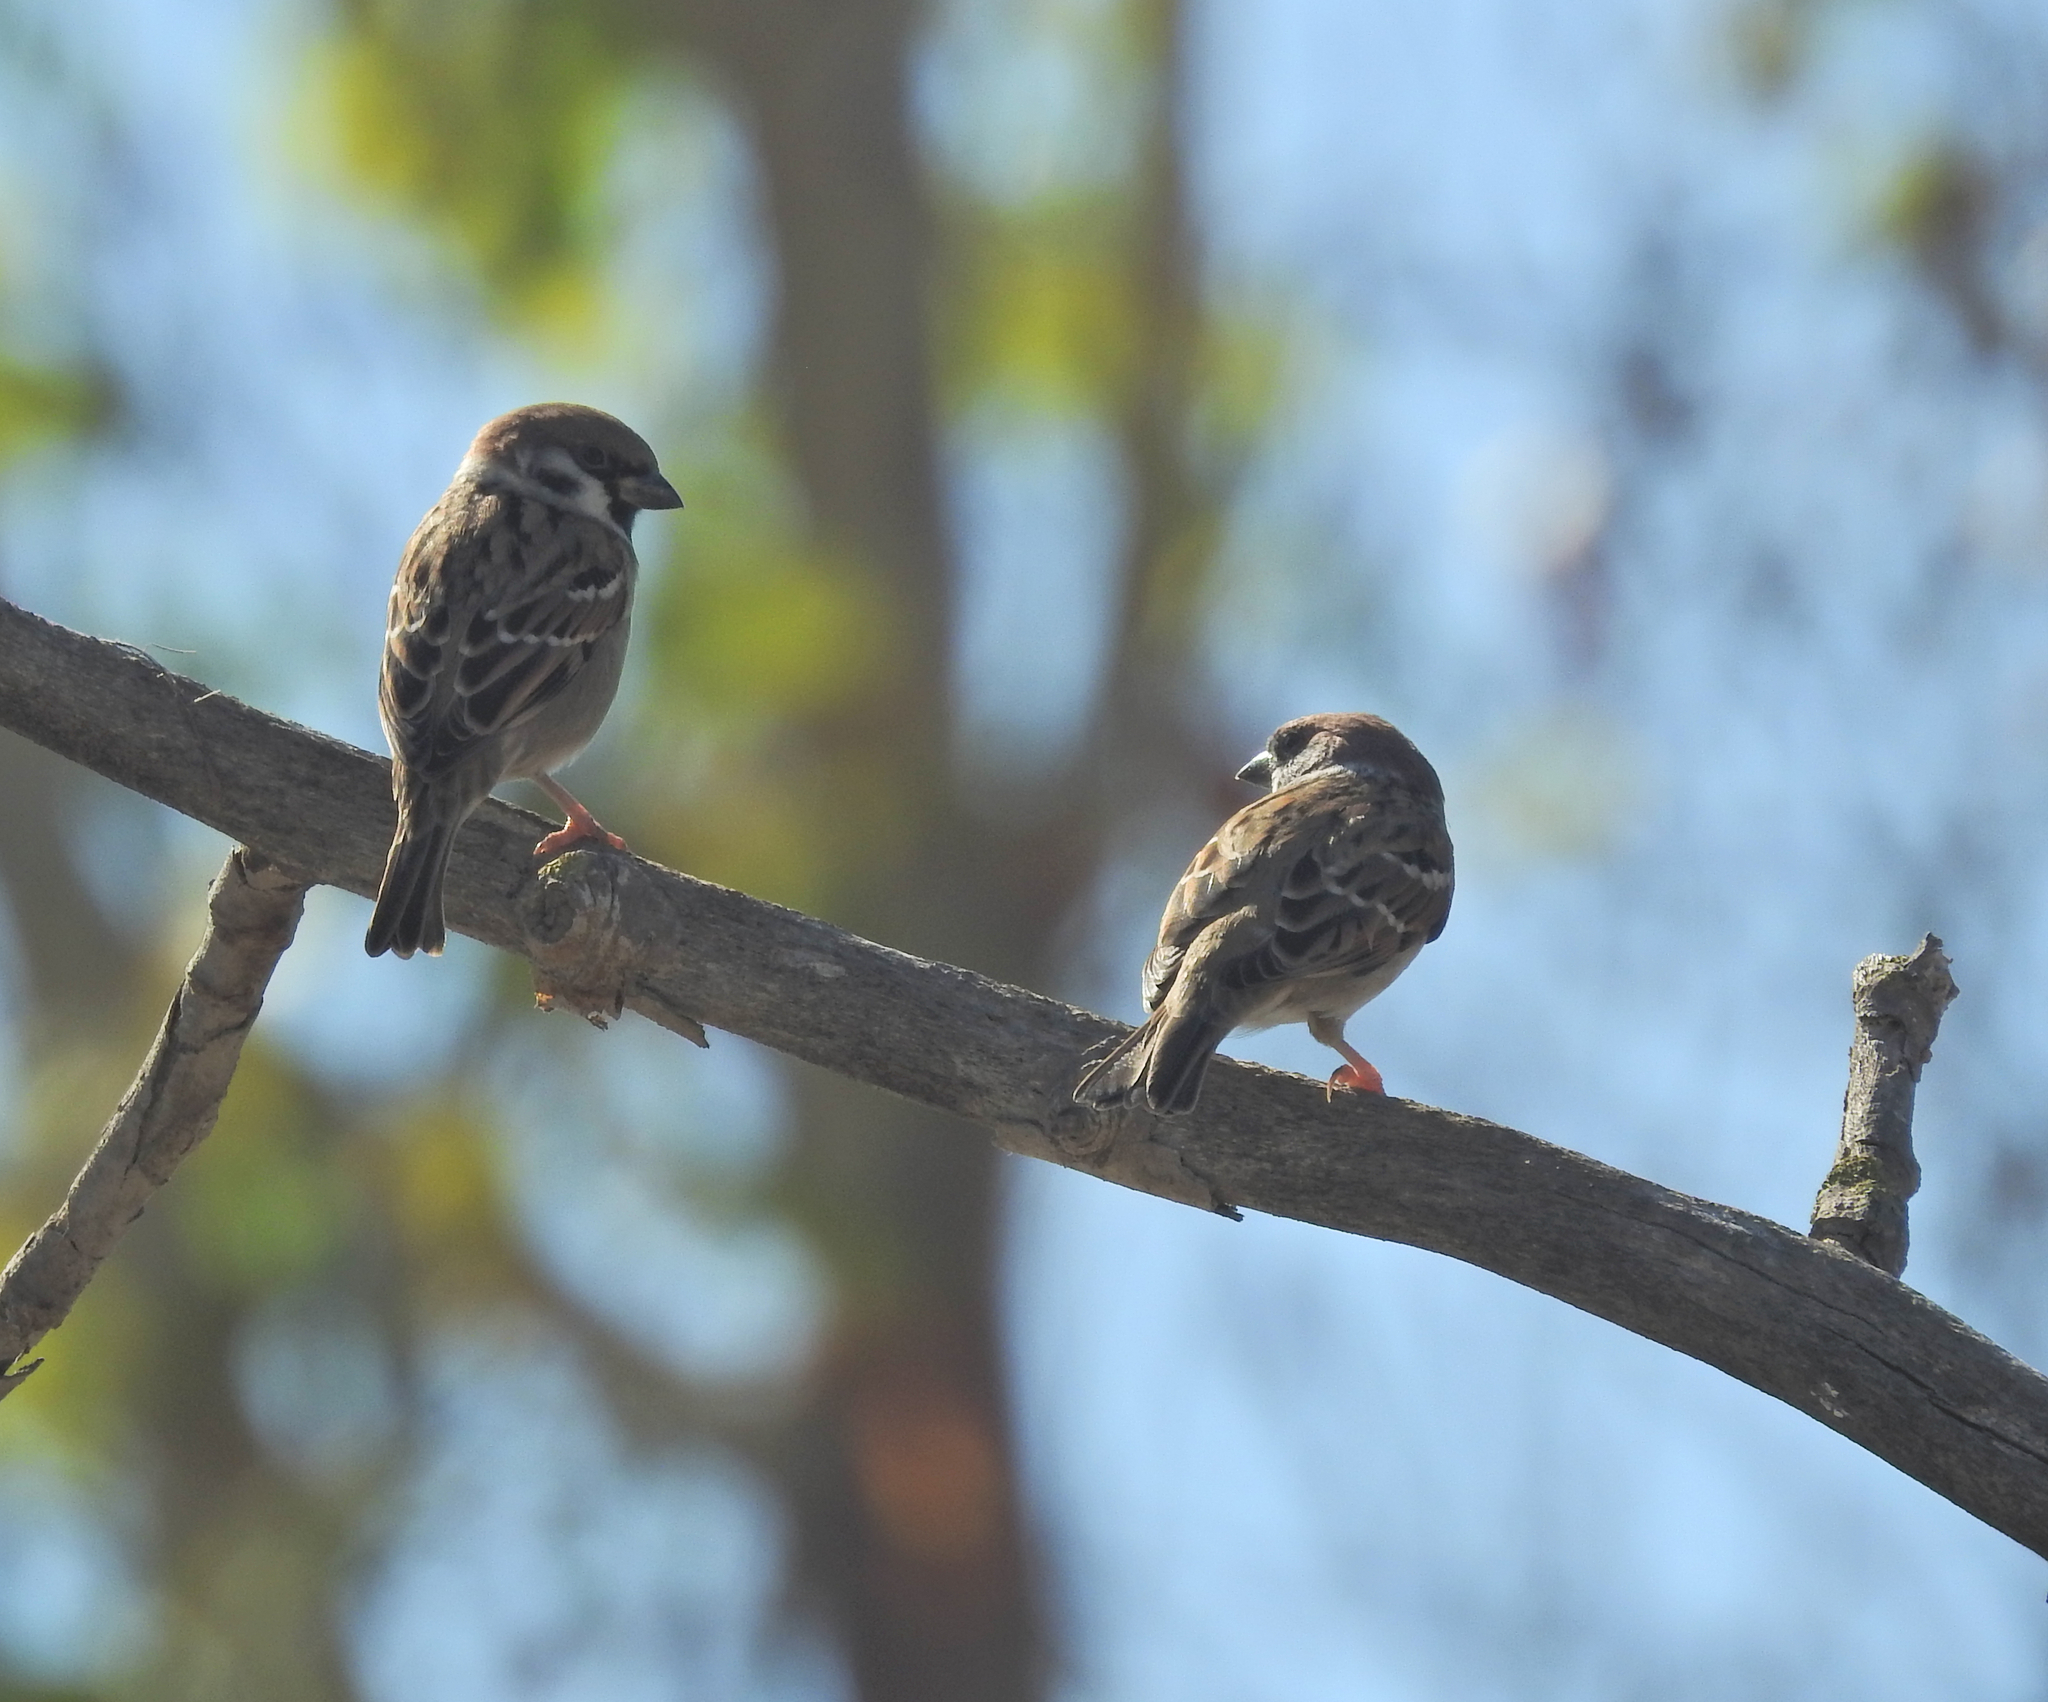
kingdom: Animalia
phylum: Chordata
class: Aves
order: Passeriformes
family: Passeridae
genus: Passer
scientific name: Passer montanus
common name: Eurasian tree sparrow
